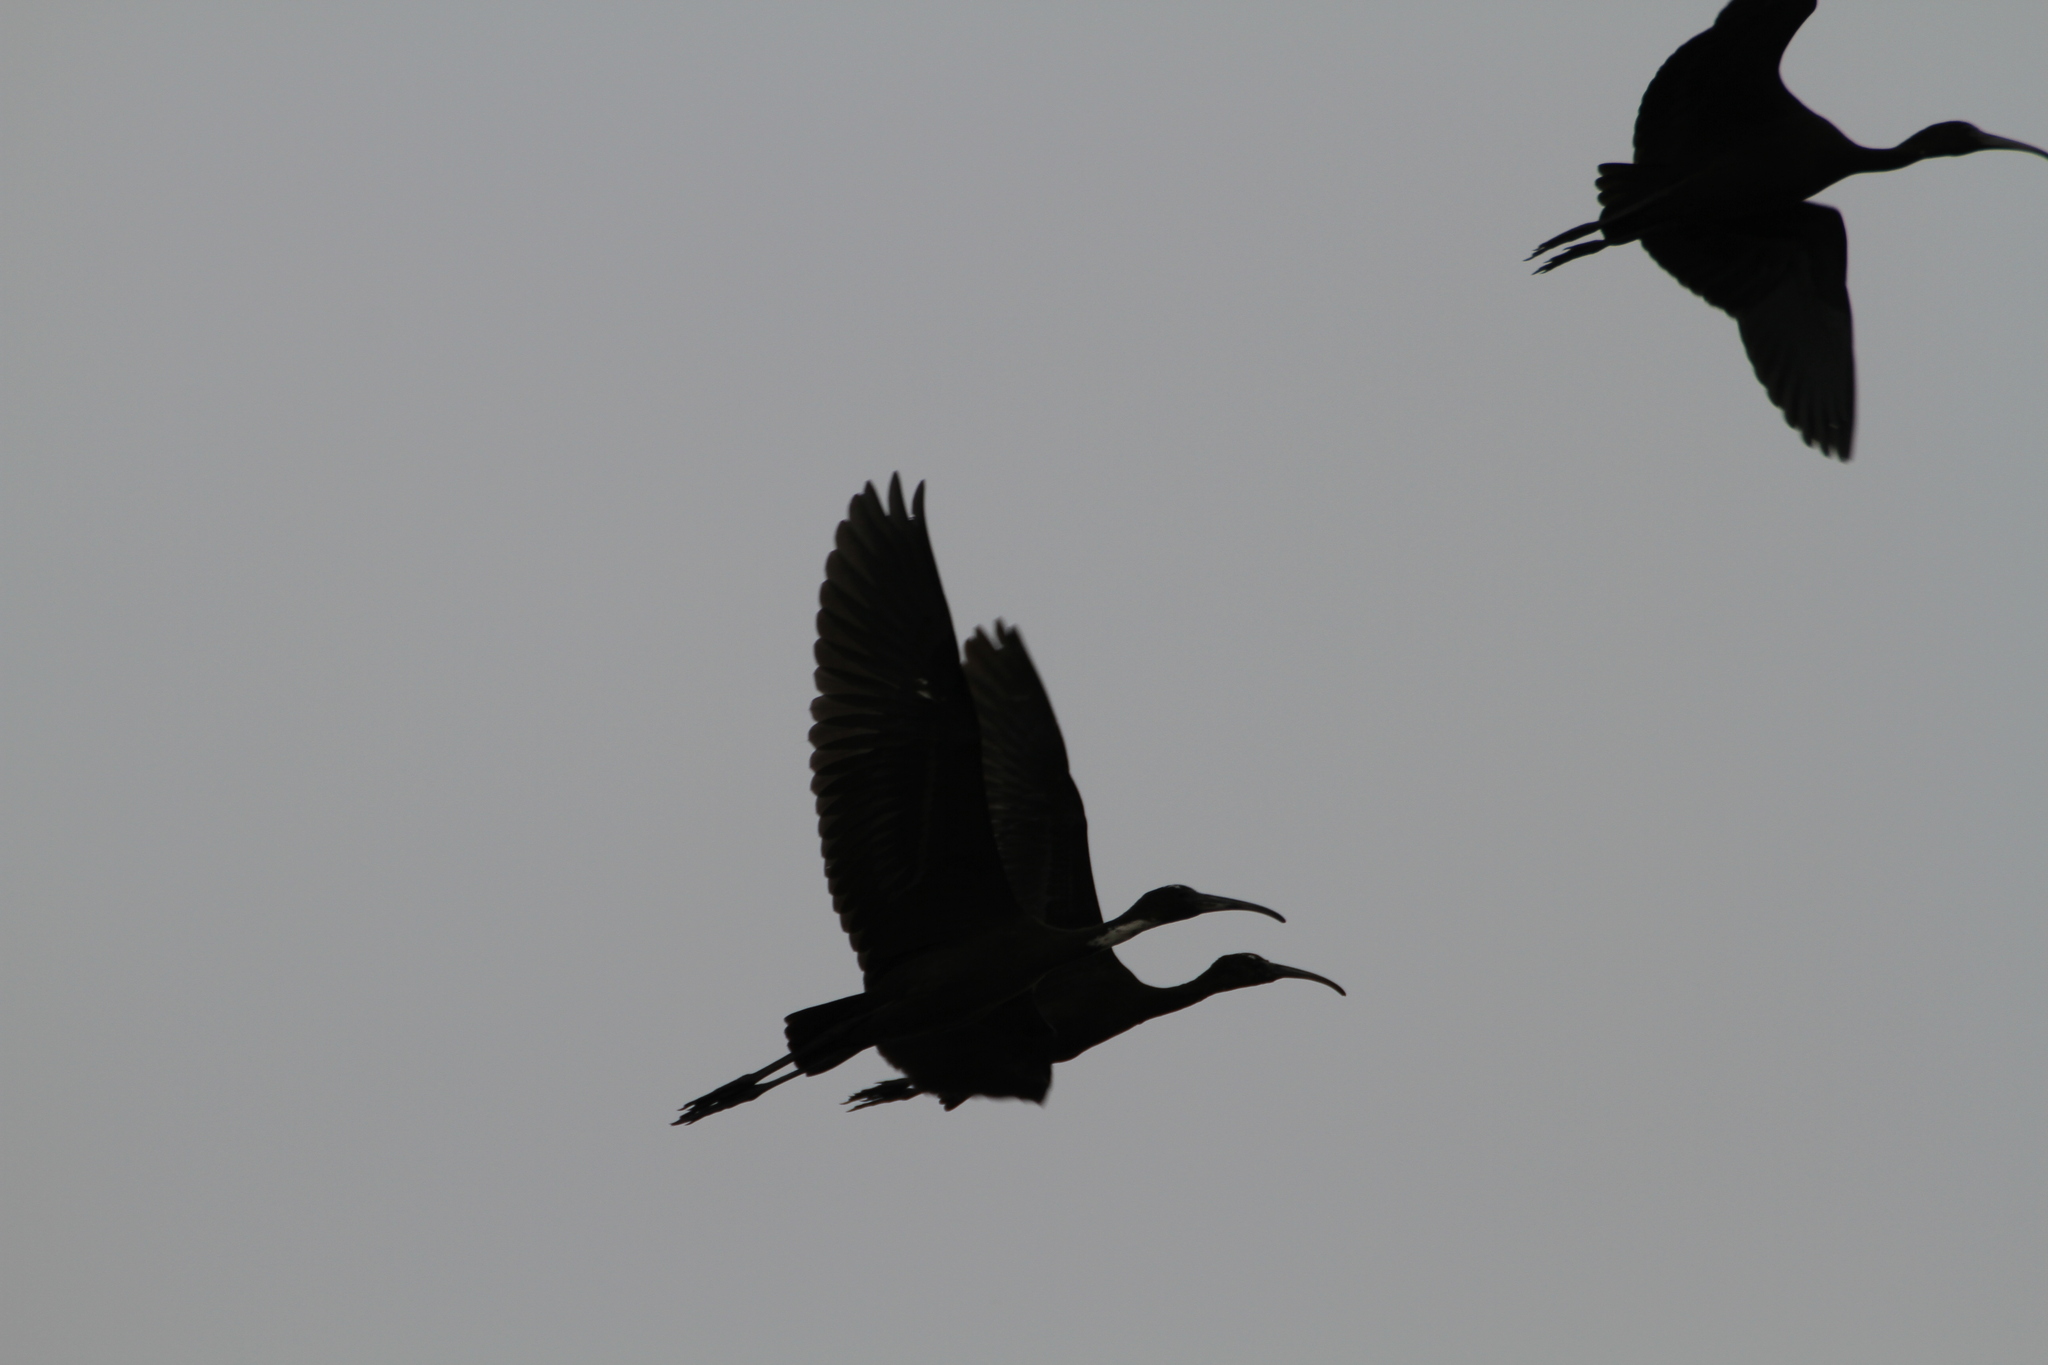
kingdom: Animalia
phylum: Chordata
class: Aves
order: Pelecaniformes
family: Threskiornithidae
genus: Plegadis
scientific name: Plegadis falcinellus
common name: Glossy ibis
